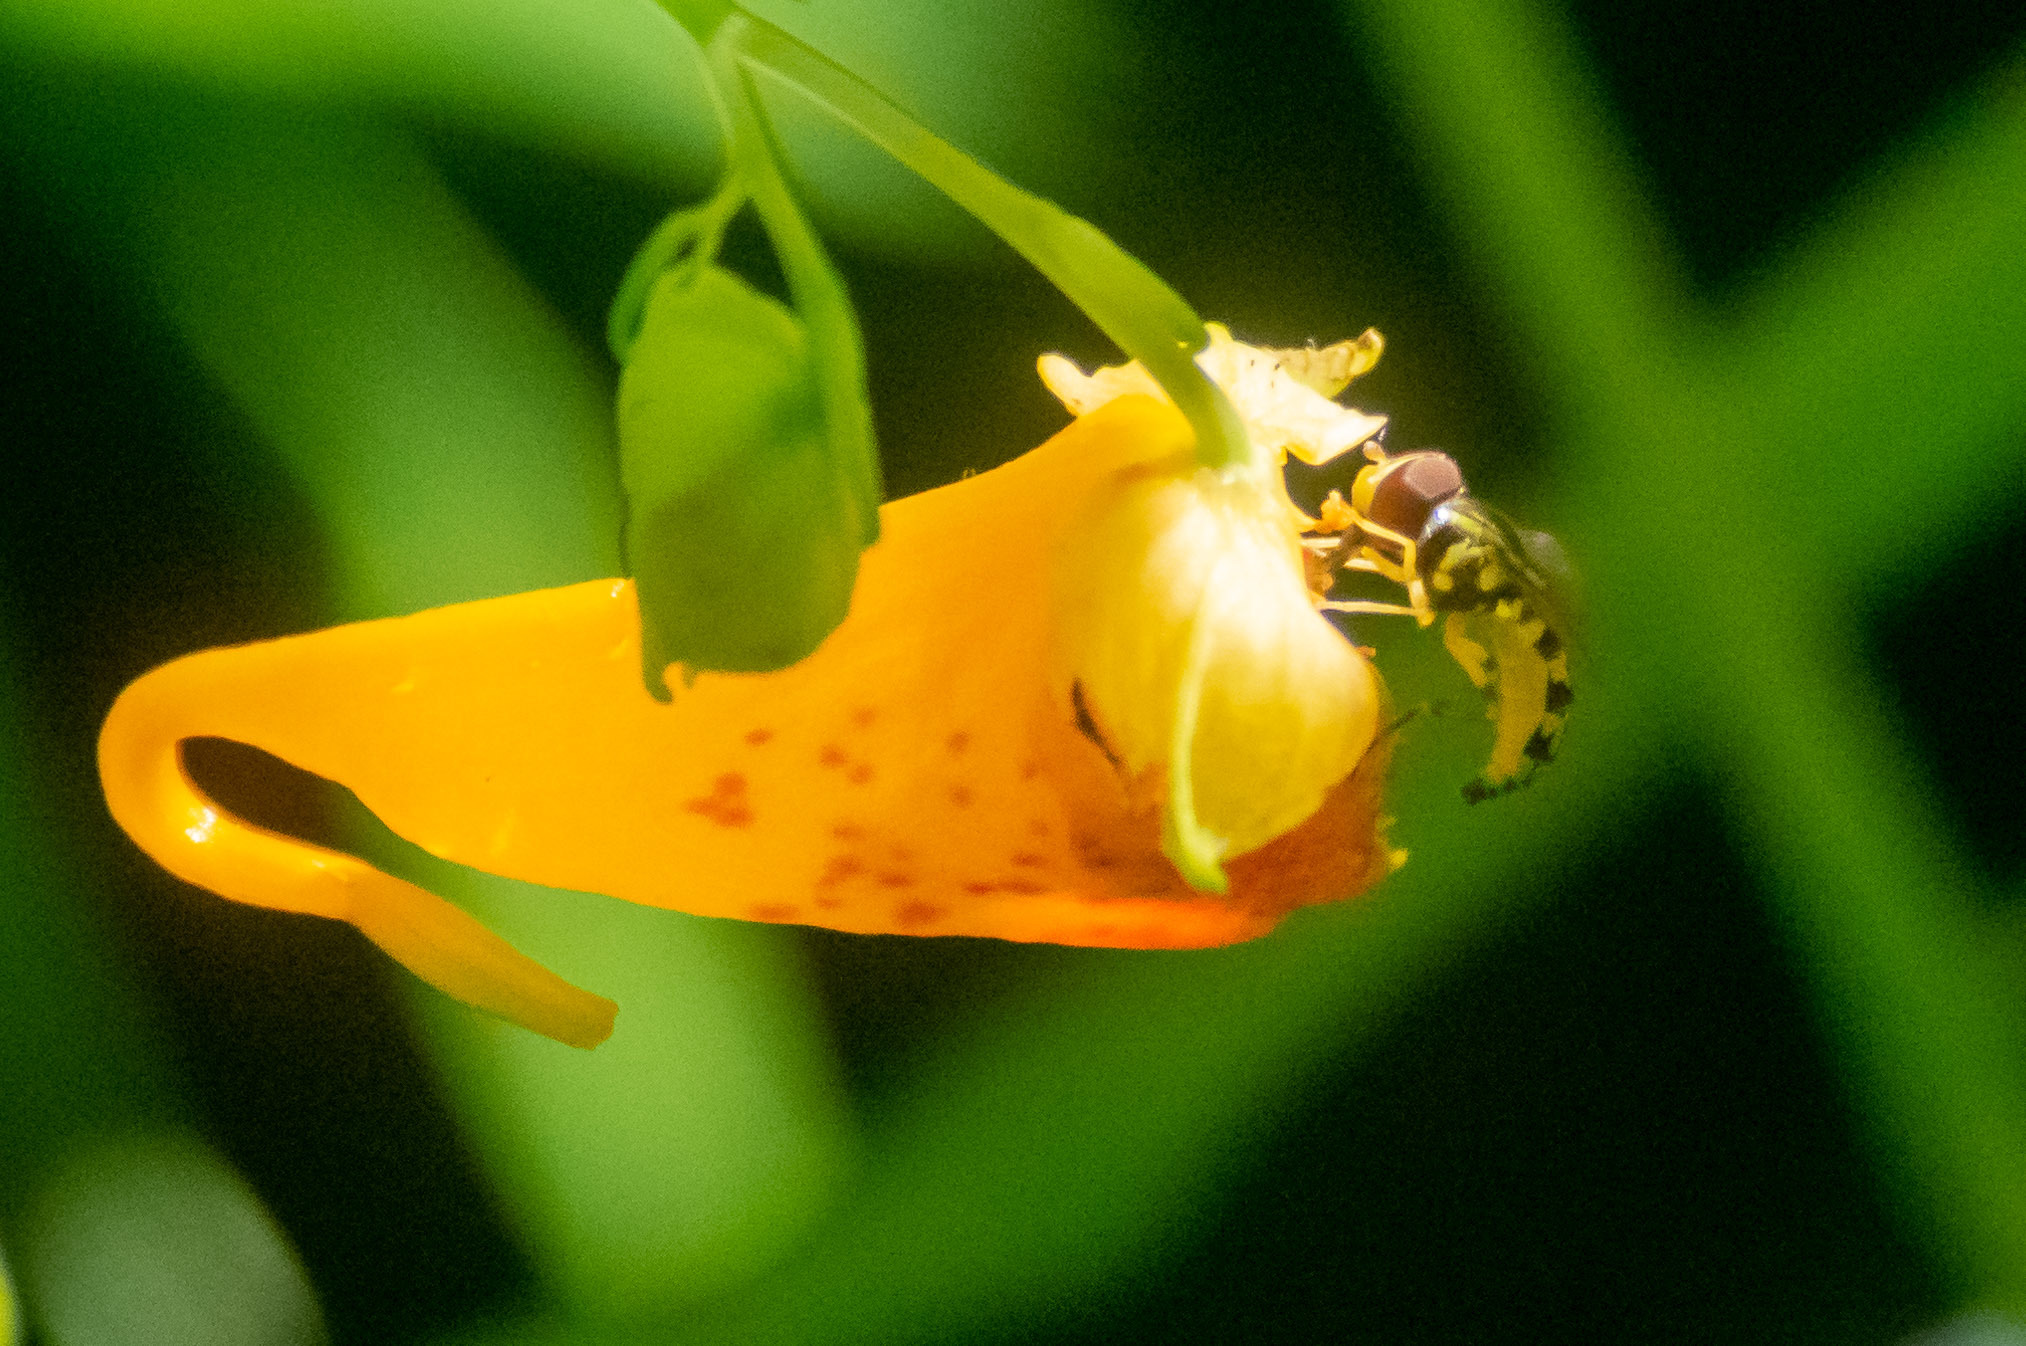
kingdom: Animalia
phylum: Arthropoda
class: Insecta
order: Diptera
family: Syrphidae
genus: Toxomerus
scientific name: Toxomerus geminatus
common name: Eastern calligrapher
